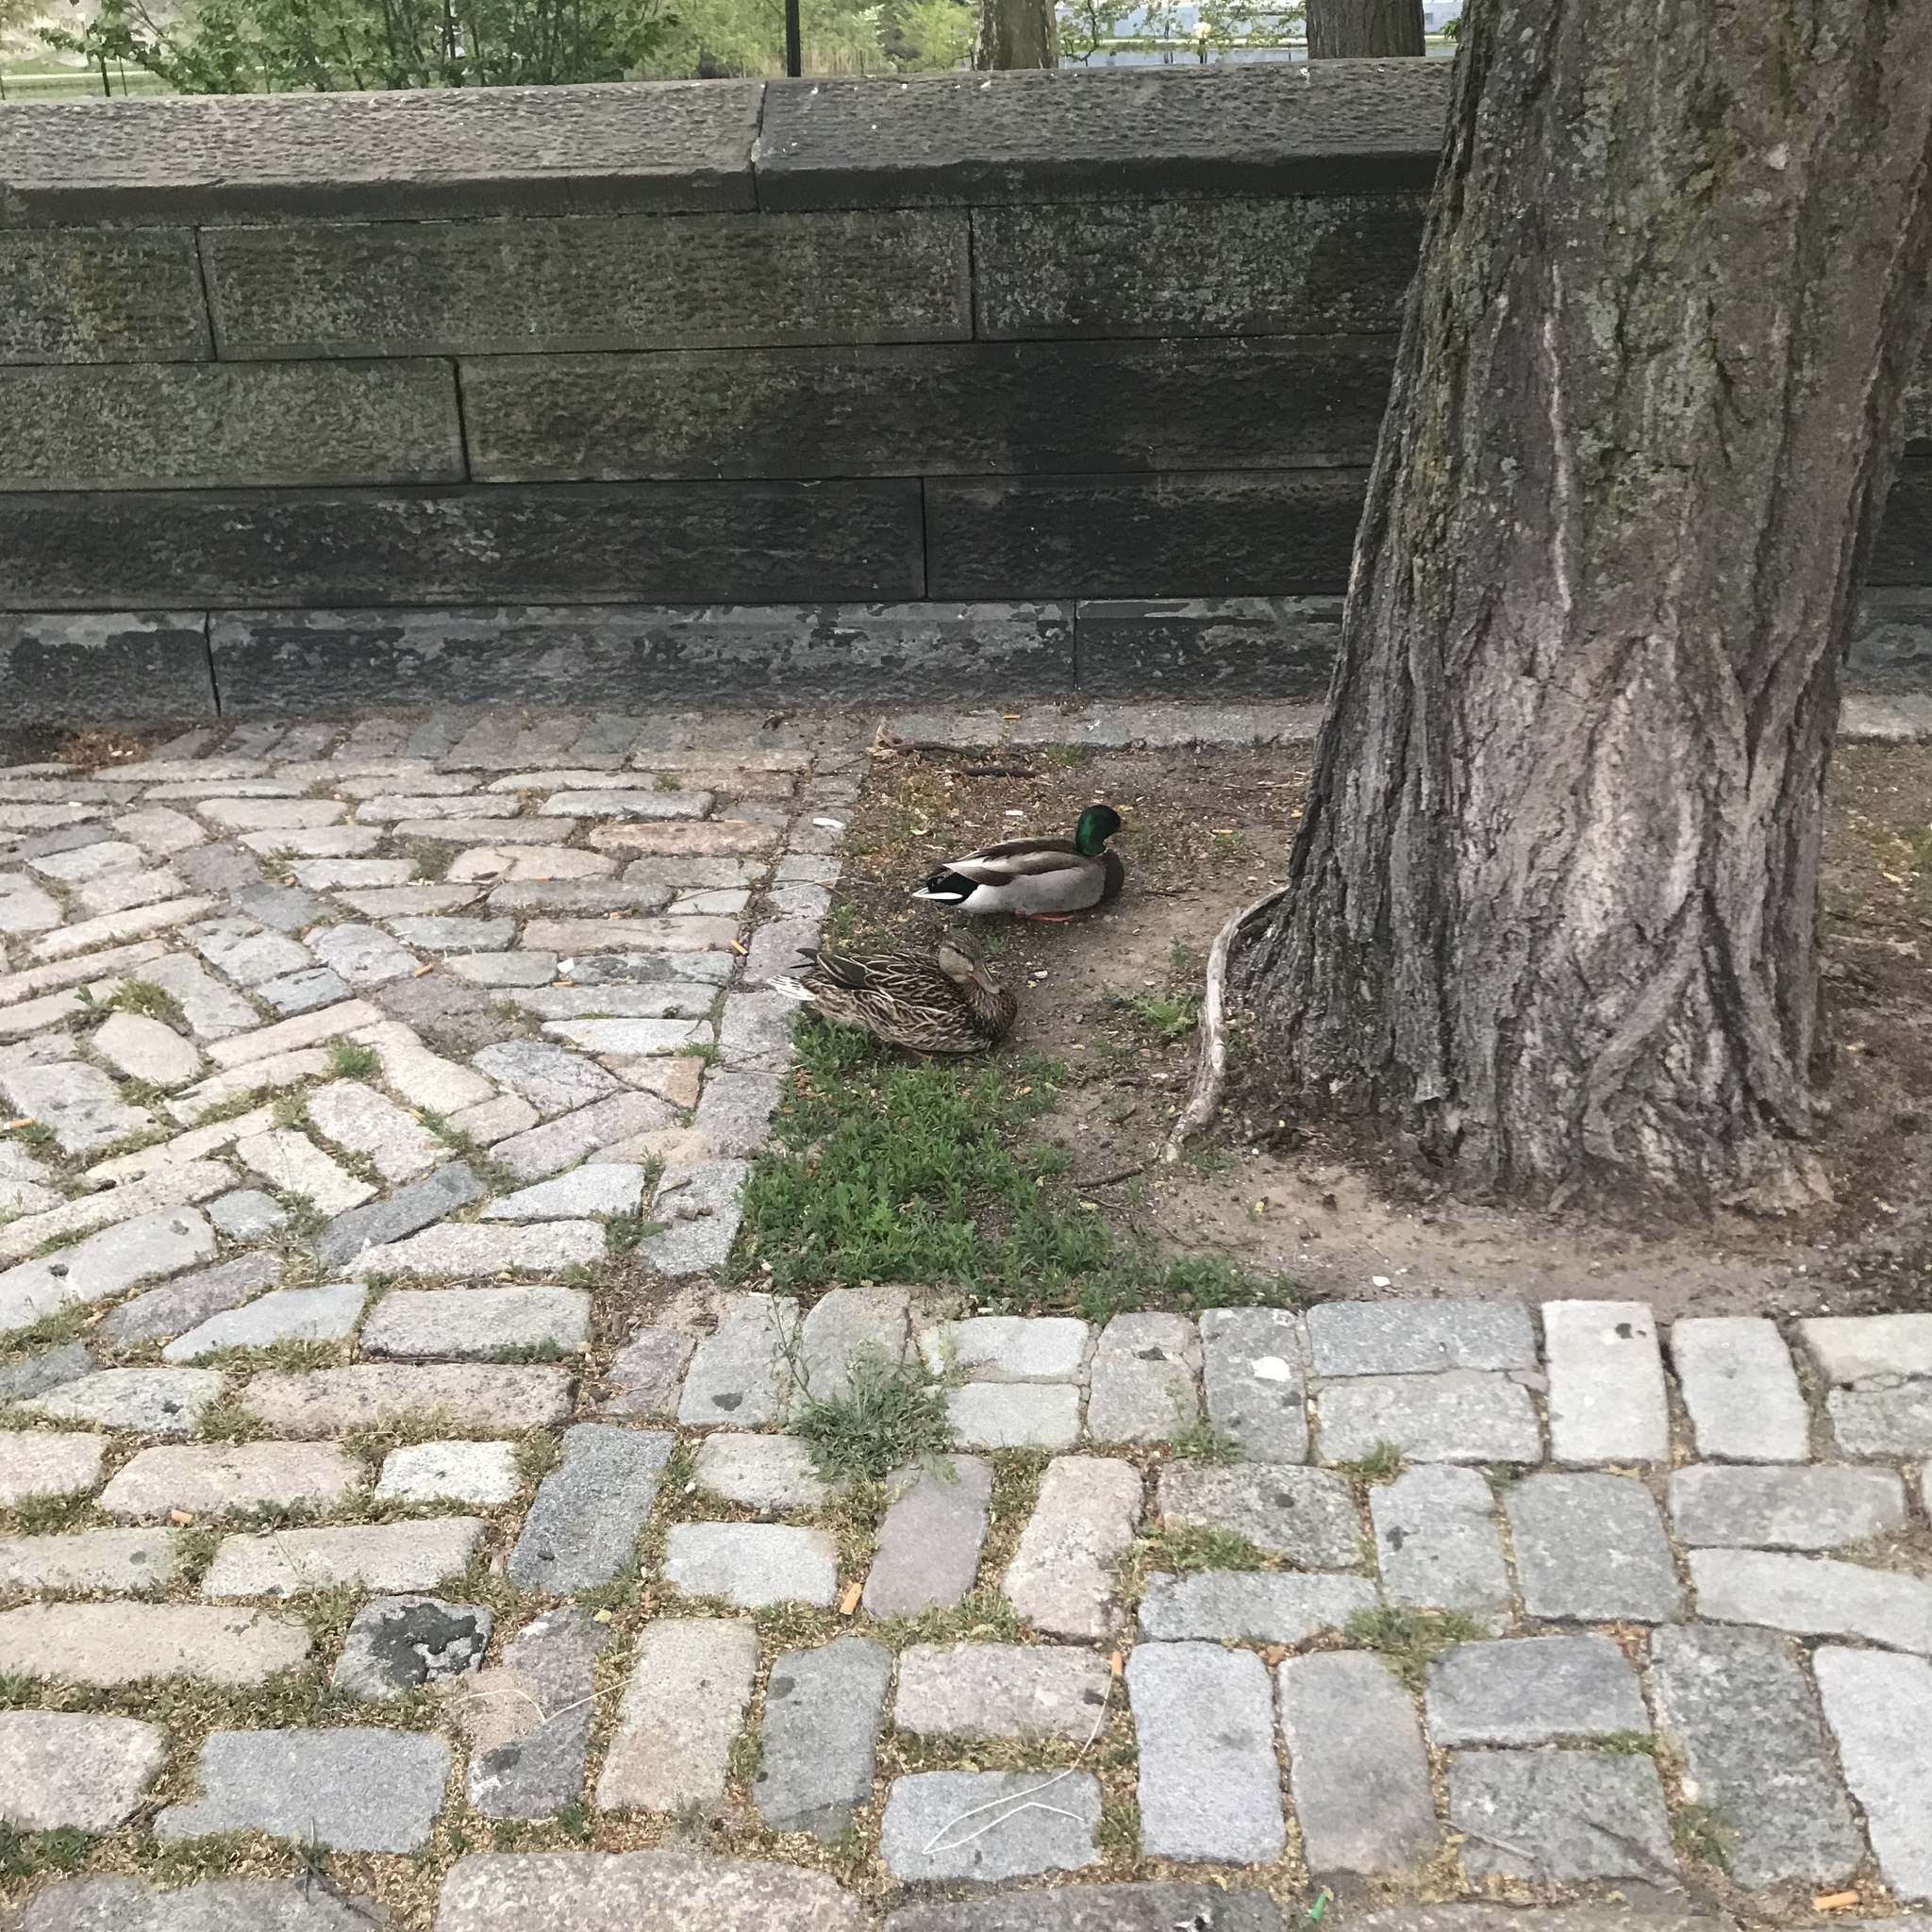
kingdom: Animalia
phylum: Chordata
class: Aves
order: Anseriformes
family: Anatidae
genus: Anas
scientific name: Anas platyrhynchos
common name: Mallard
